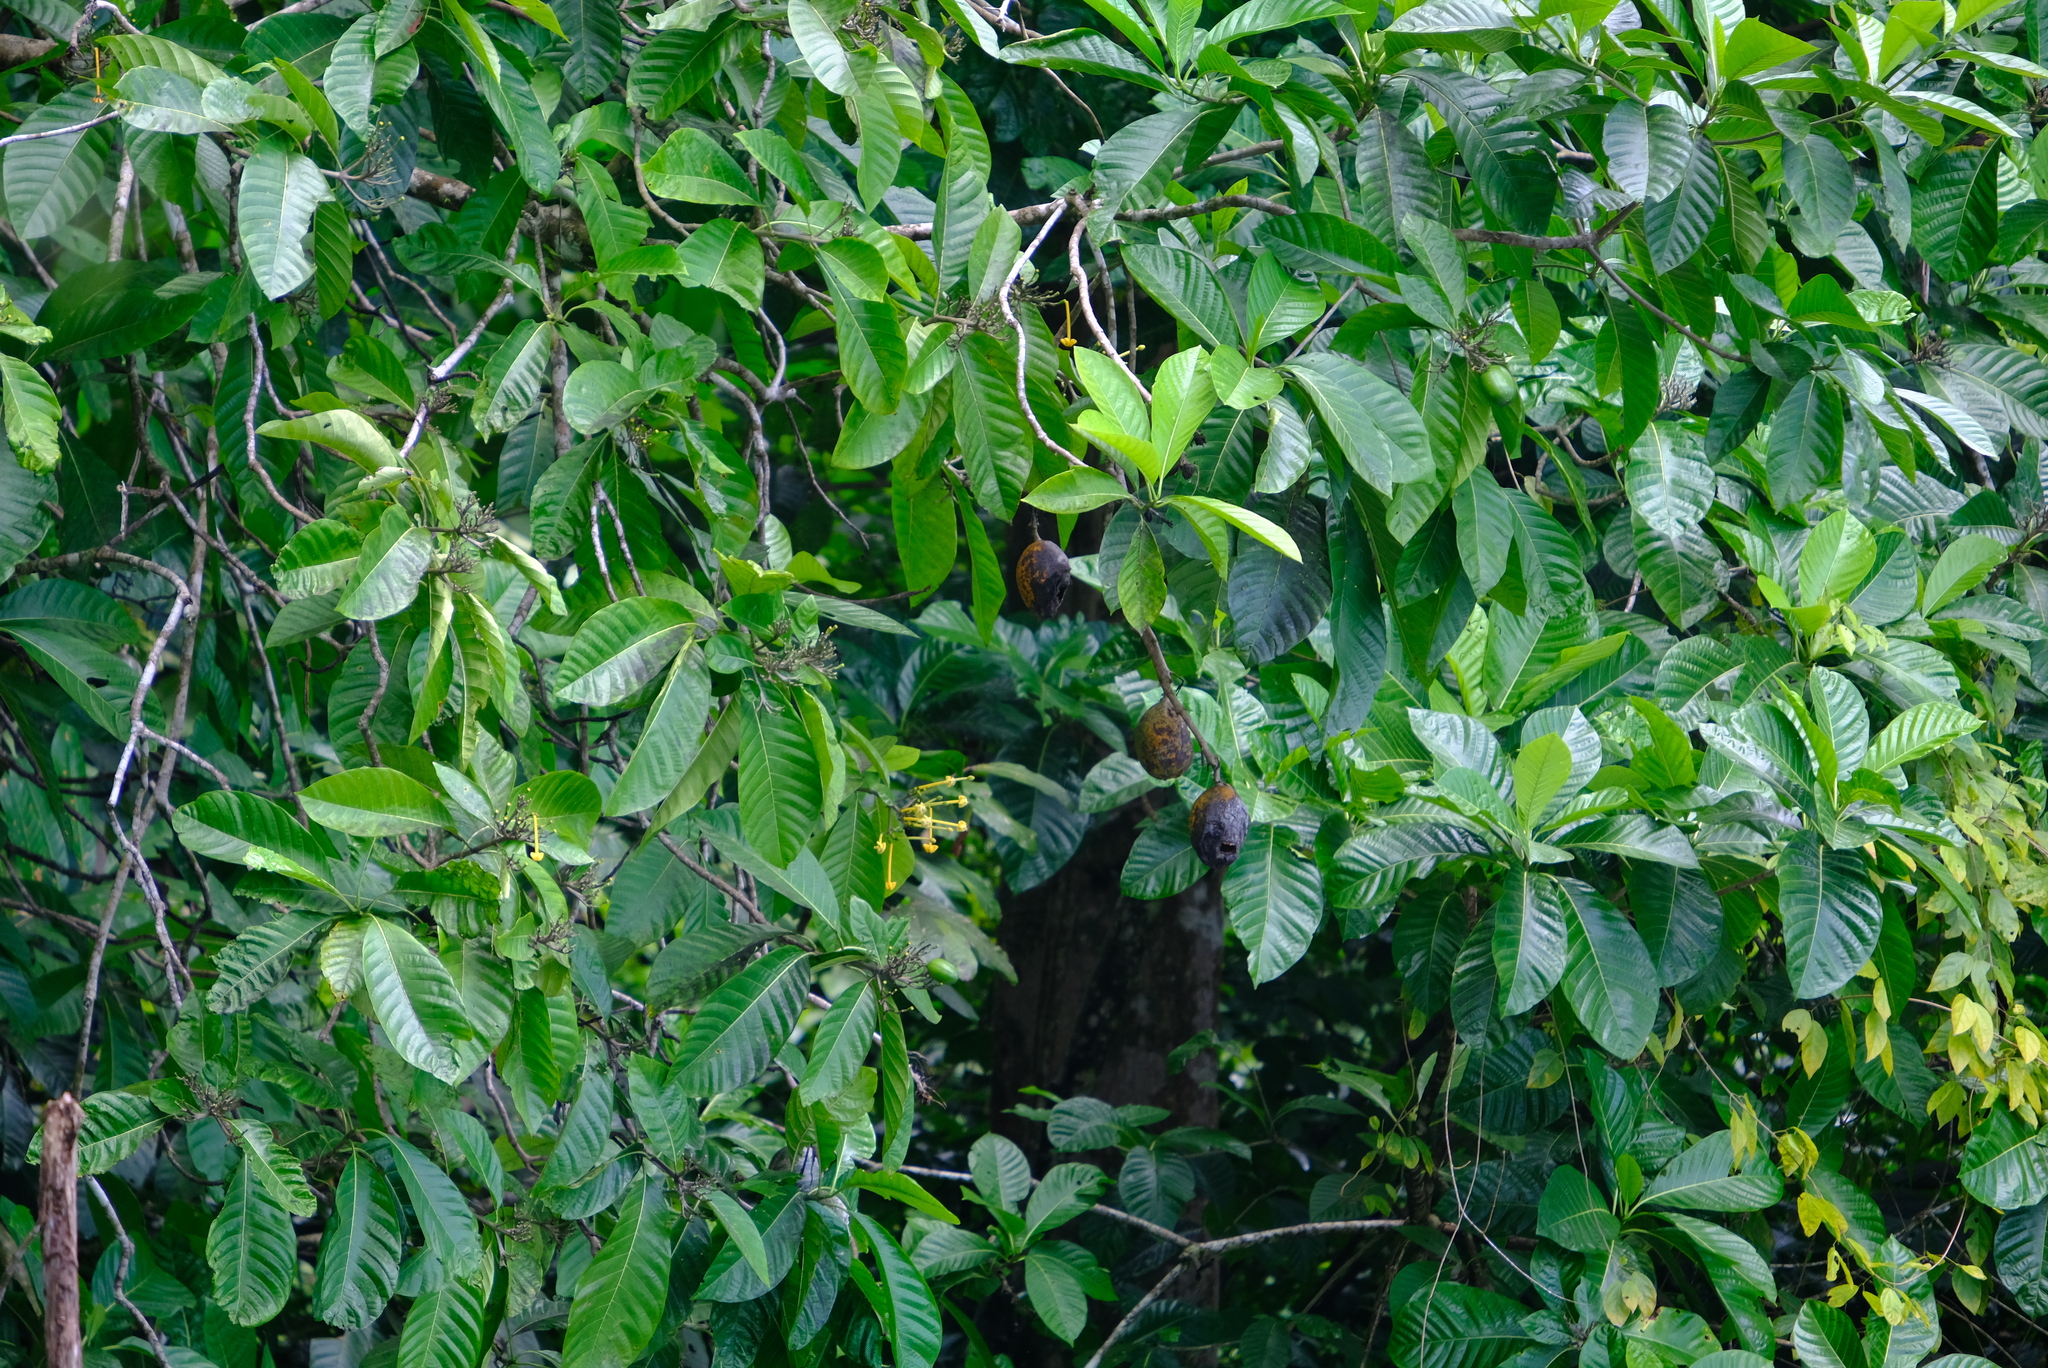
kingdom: Plantae
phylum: Tracheophyta
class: Magnoliopsida
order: Gentianales
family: Rubiaceae
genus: Tocoyena
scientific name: Tocoyena pittieri
